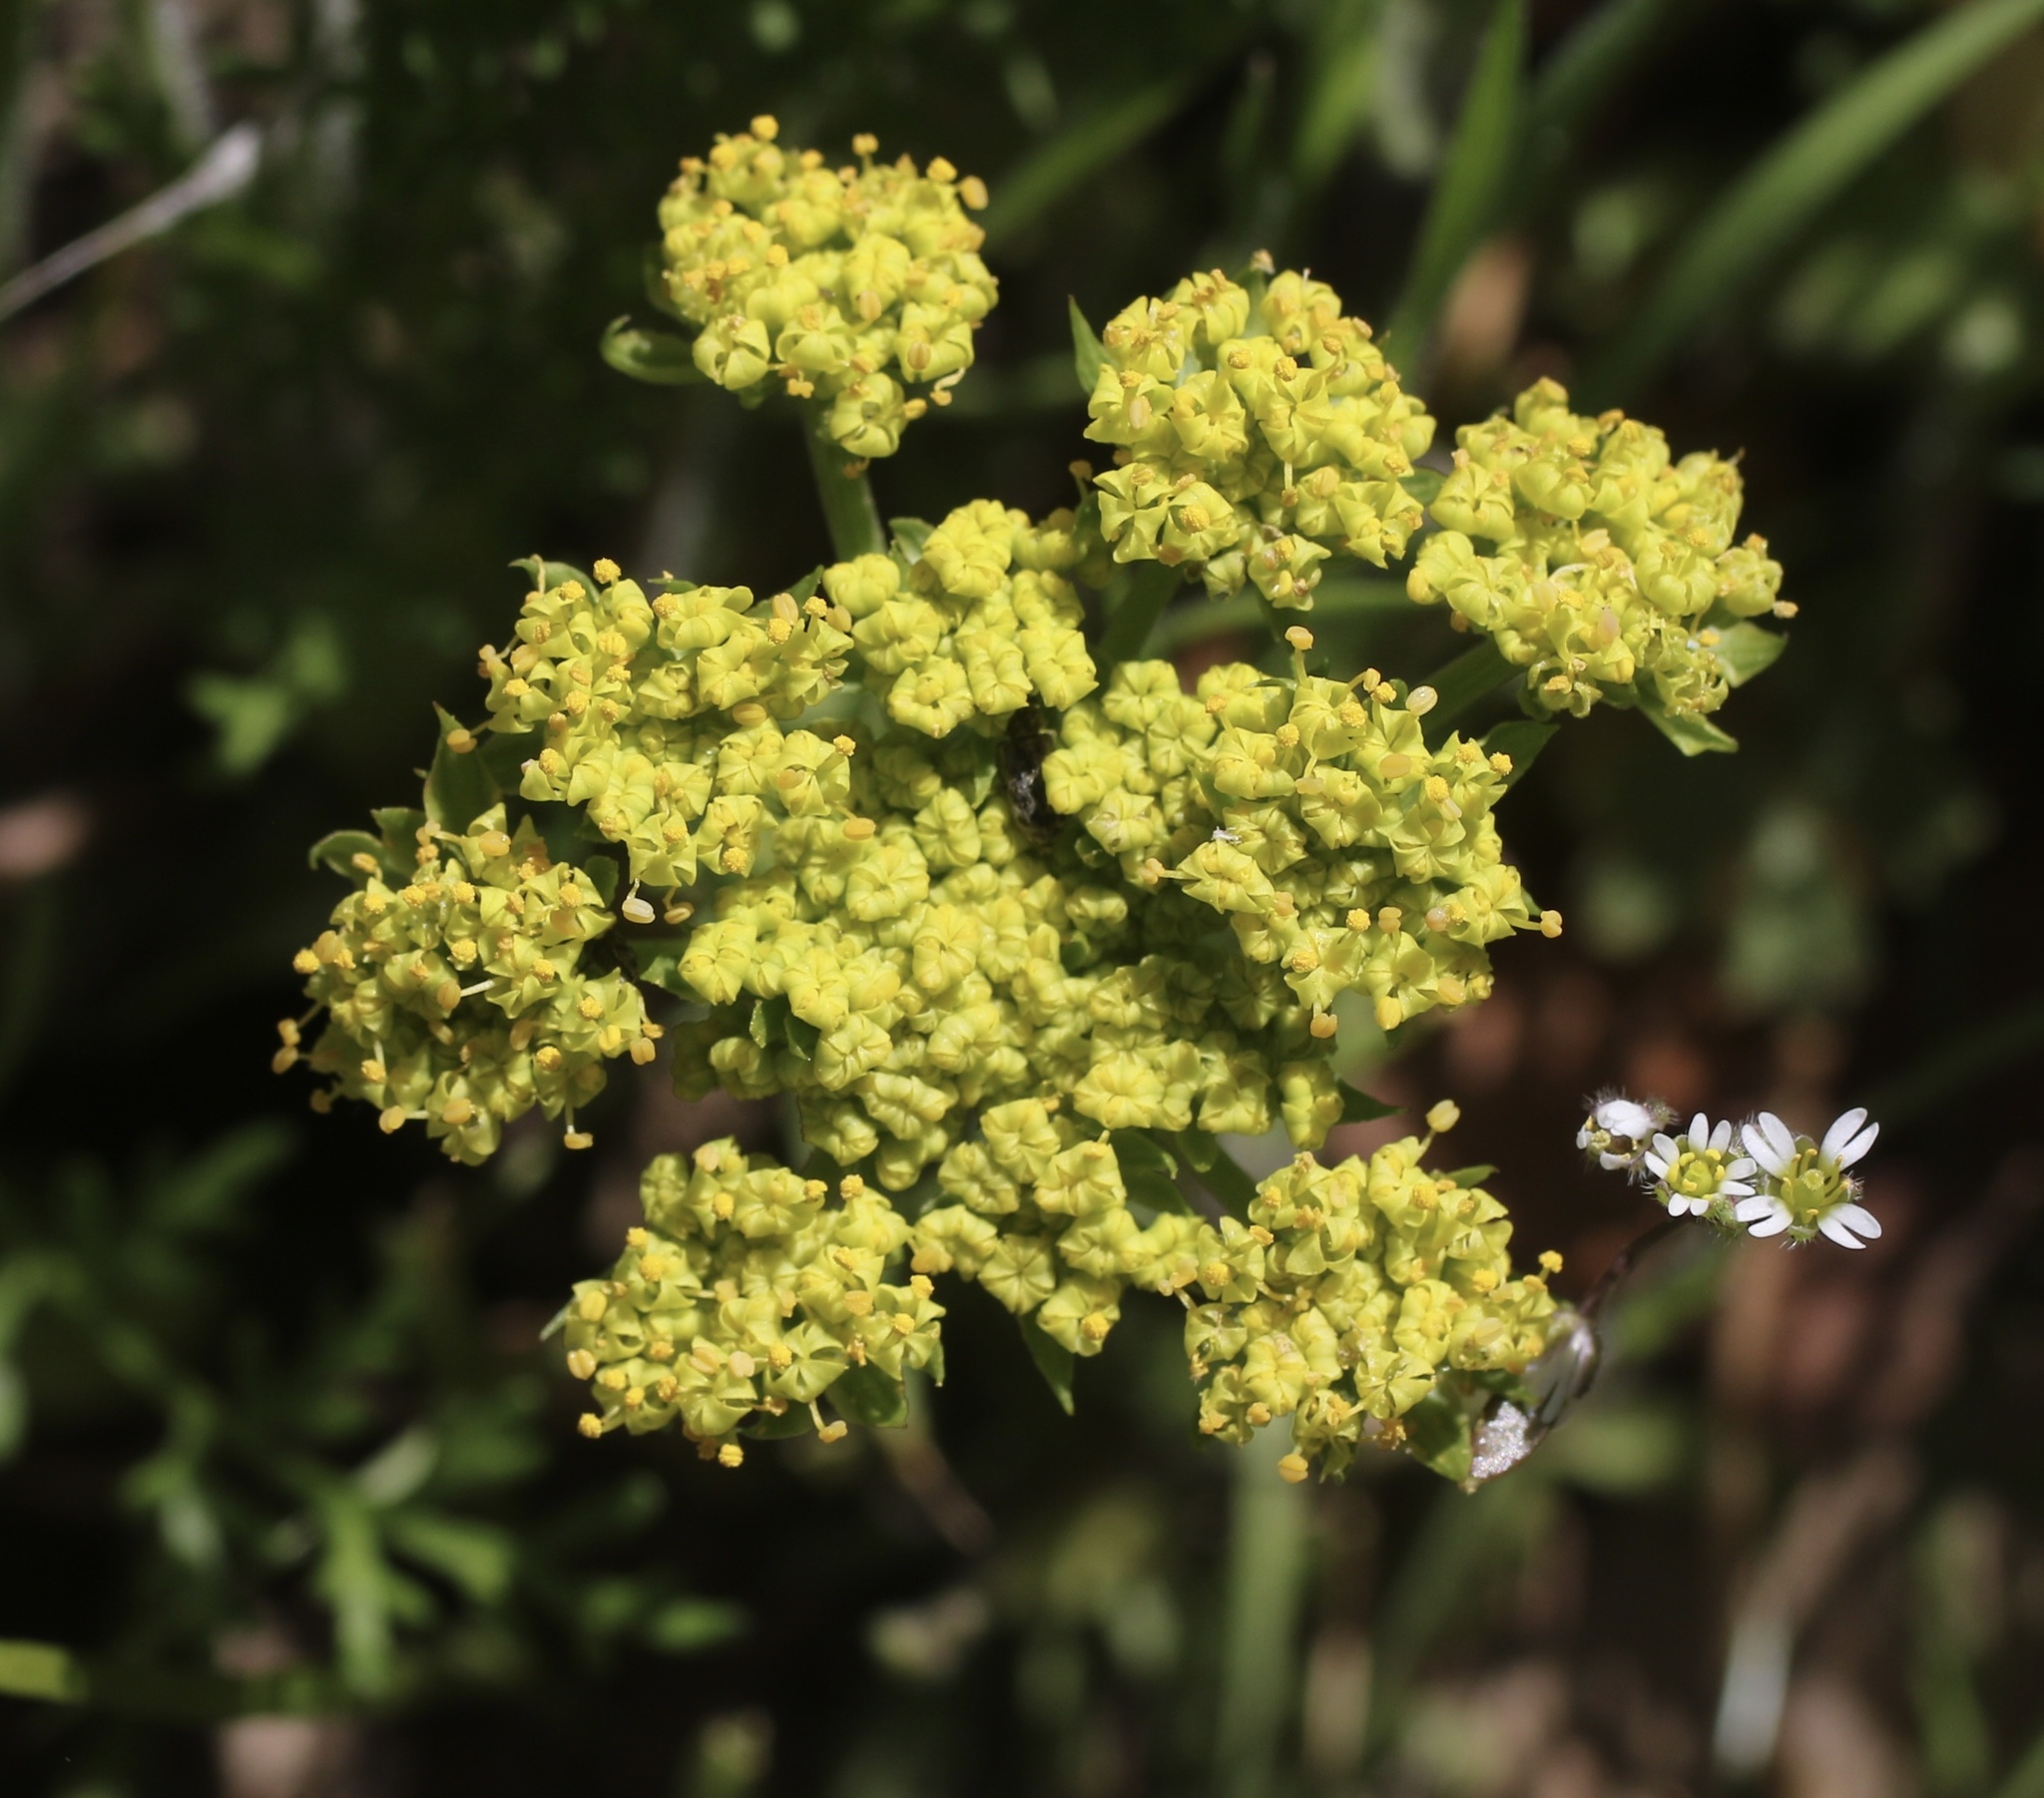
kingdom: Plantae
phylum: Tracheophyta
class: Magnoliopsida
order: Apiales
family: Apiaceae
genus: Lomatium
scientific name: Lomatium utriculatum
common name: Fine-leaf desert-parsley
